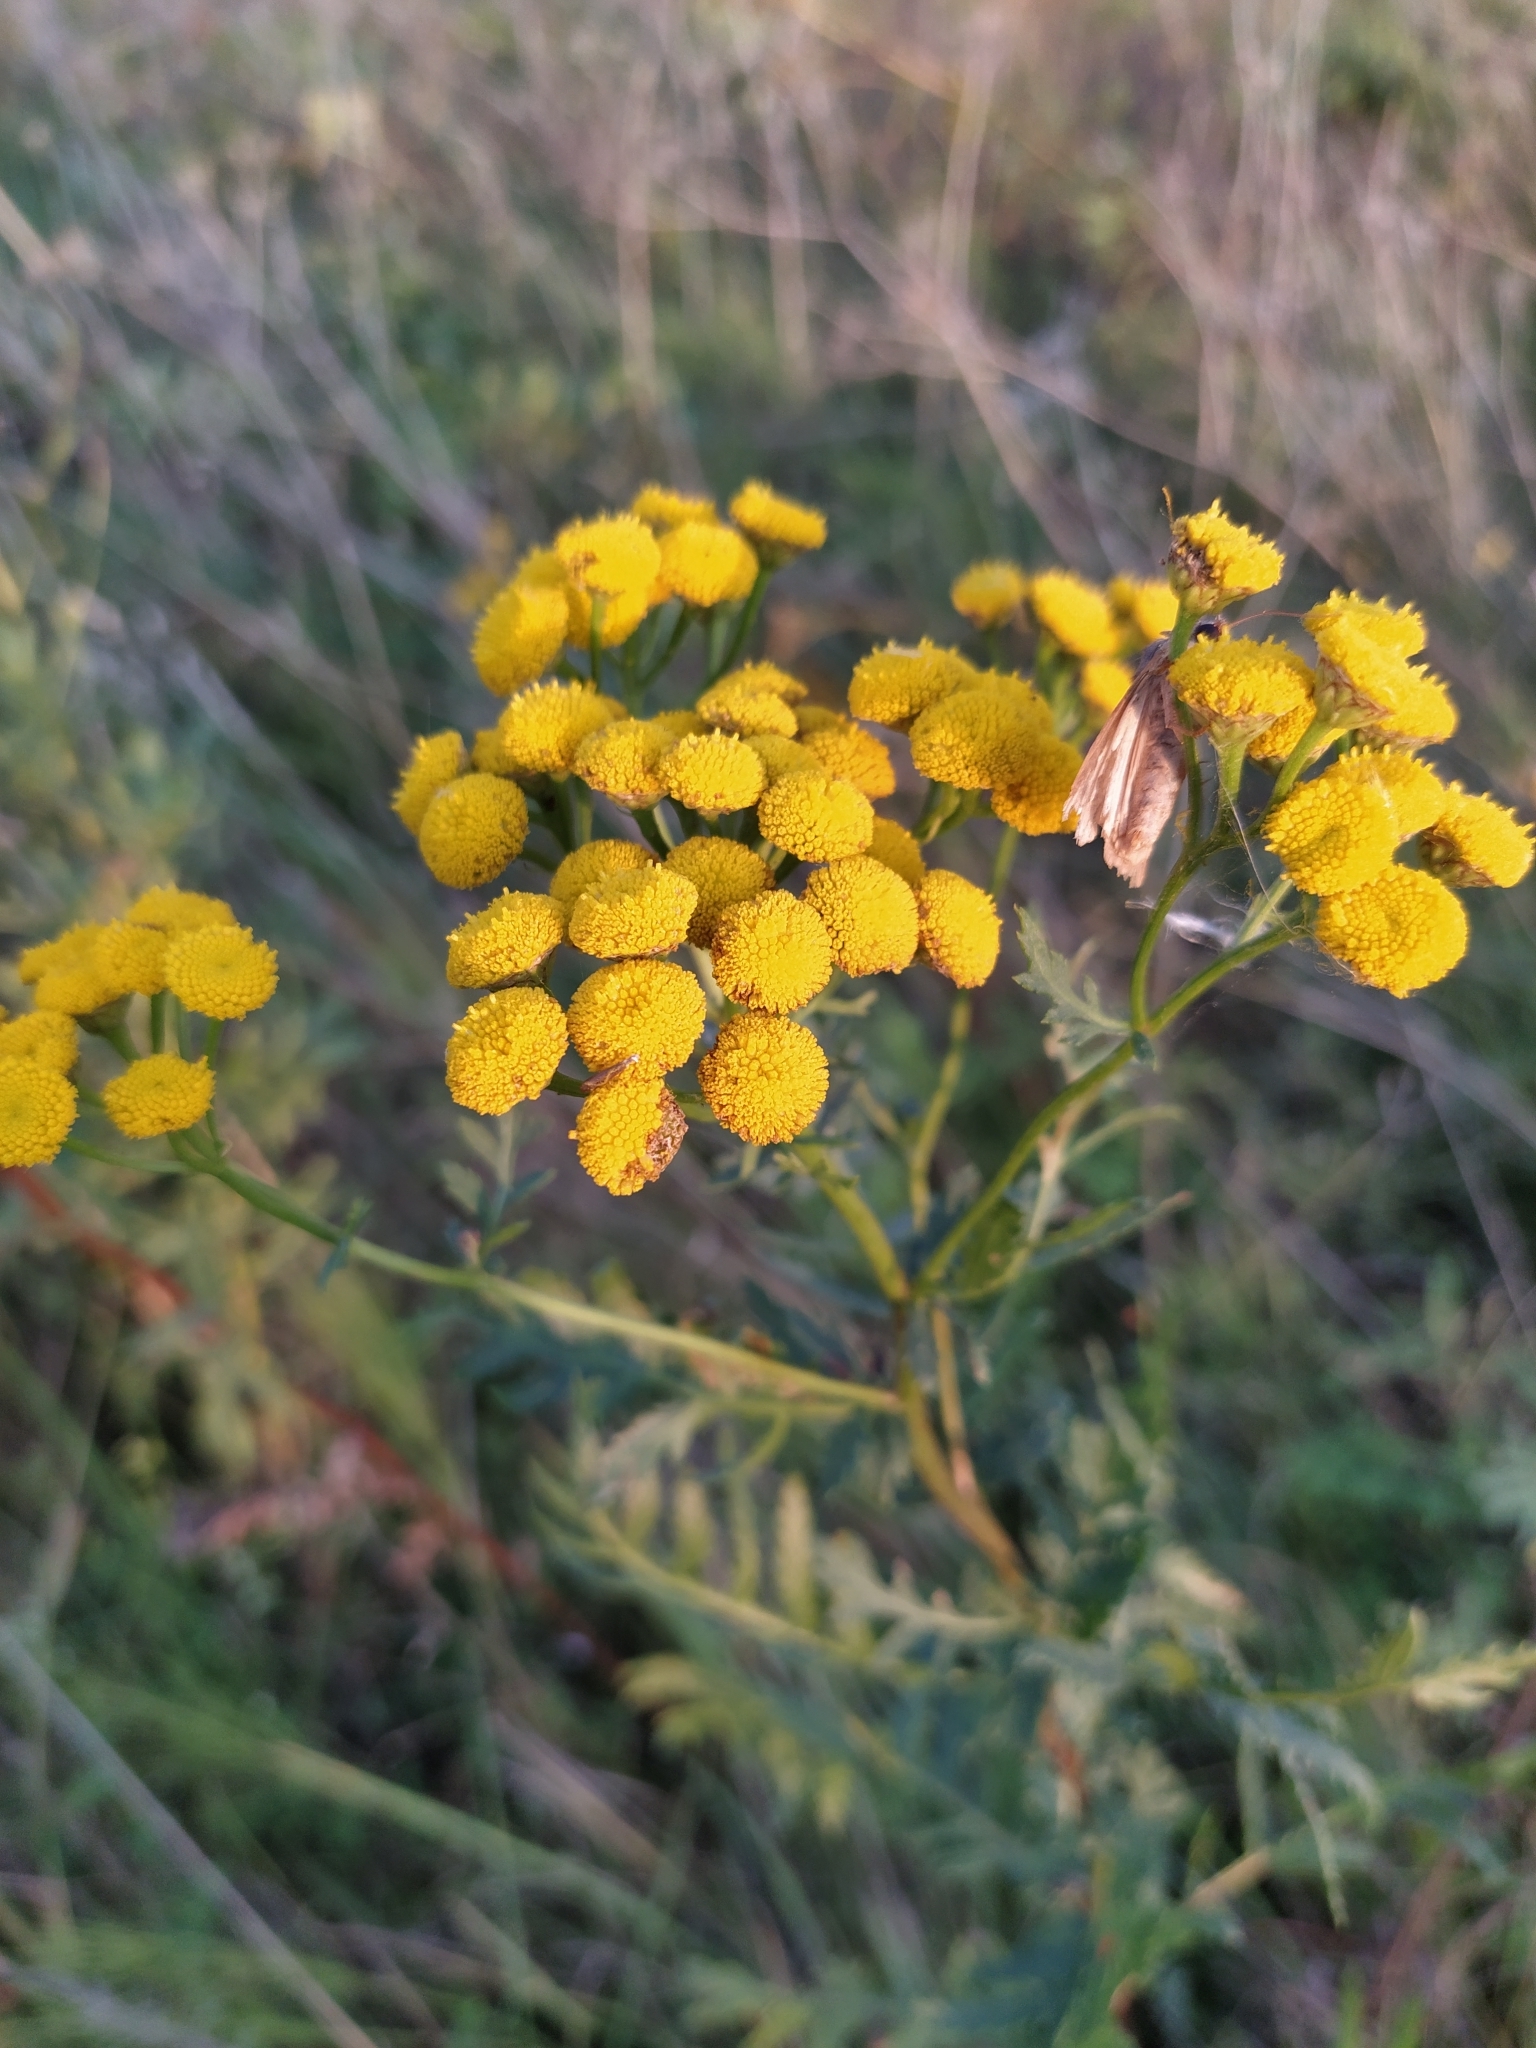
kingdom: Plantae
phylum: Tracheophyta
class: Magnoliopsida
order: Asterales
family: Asteraceae
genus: Tanacetum
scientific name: Tanacetum vulgare
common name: Common tansy
